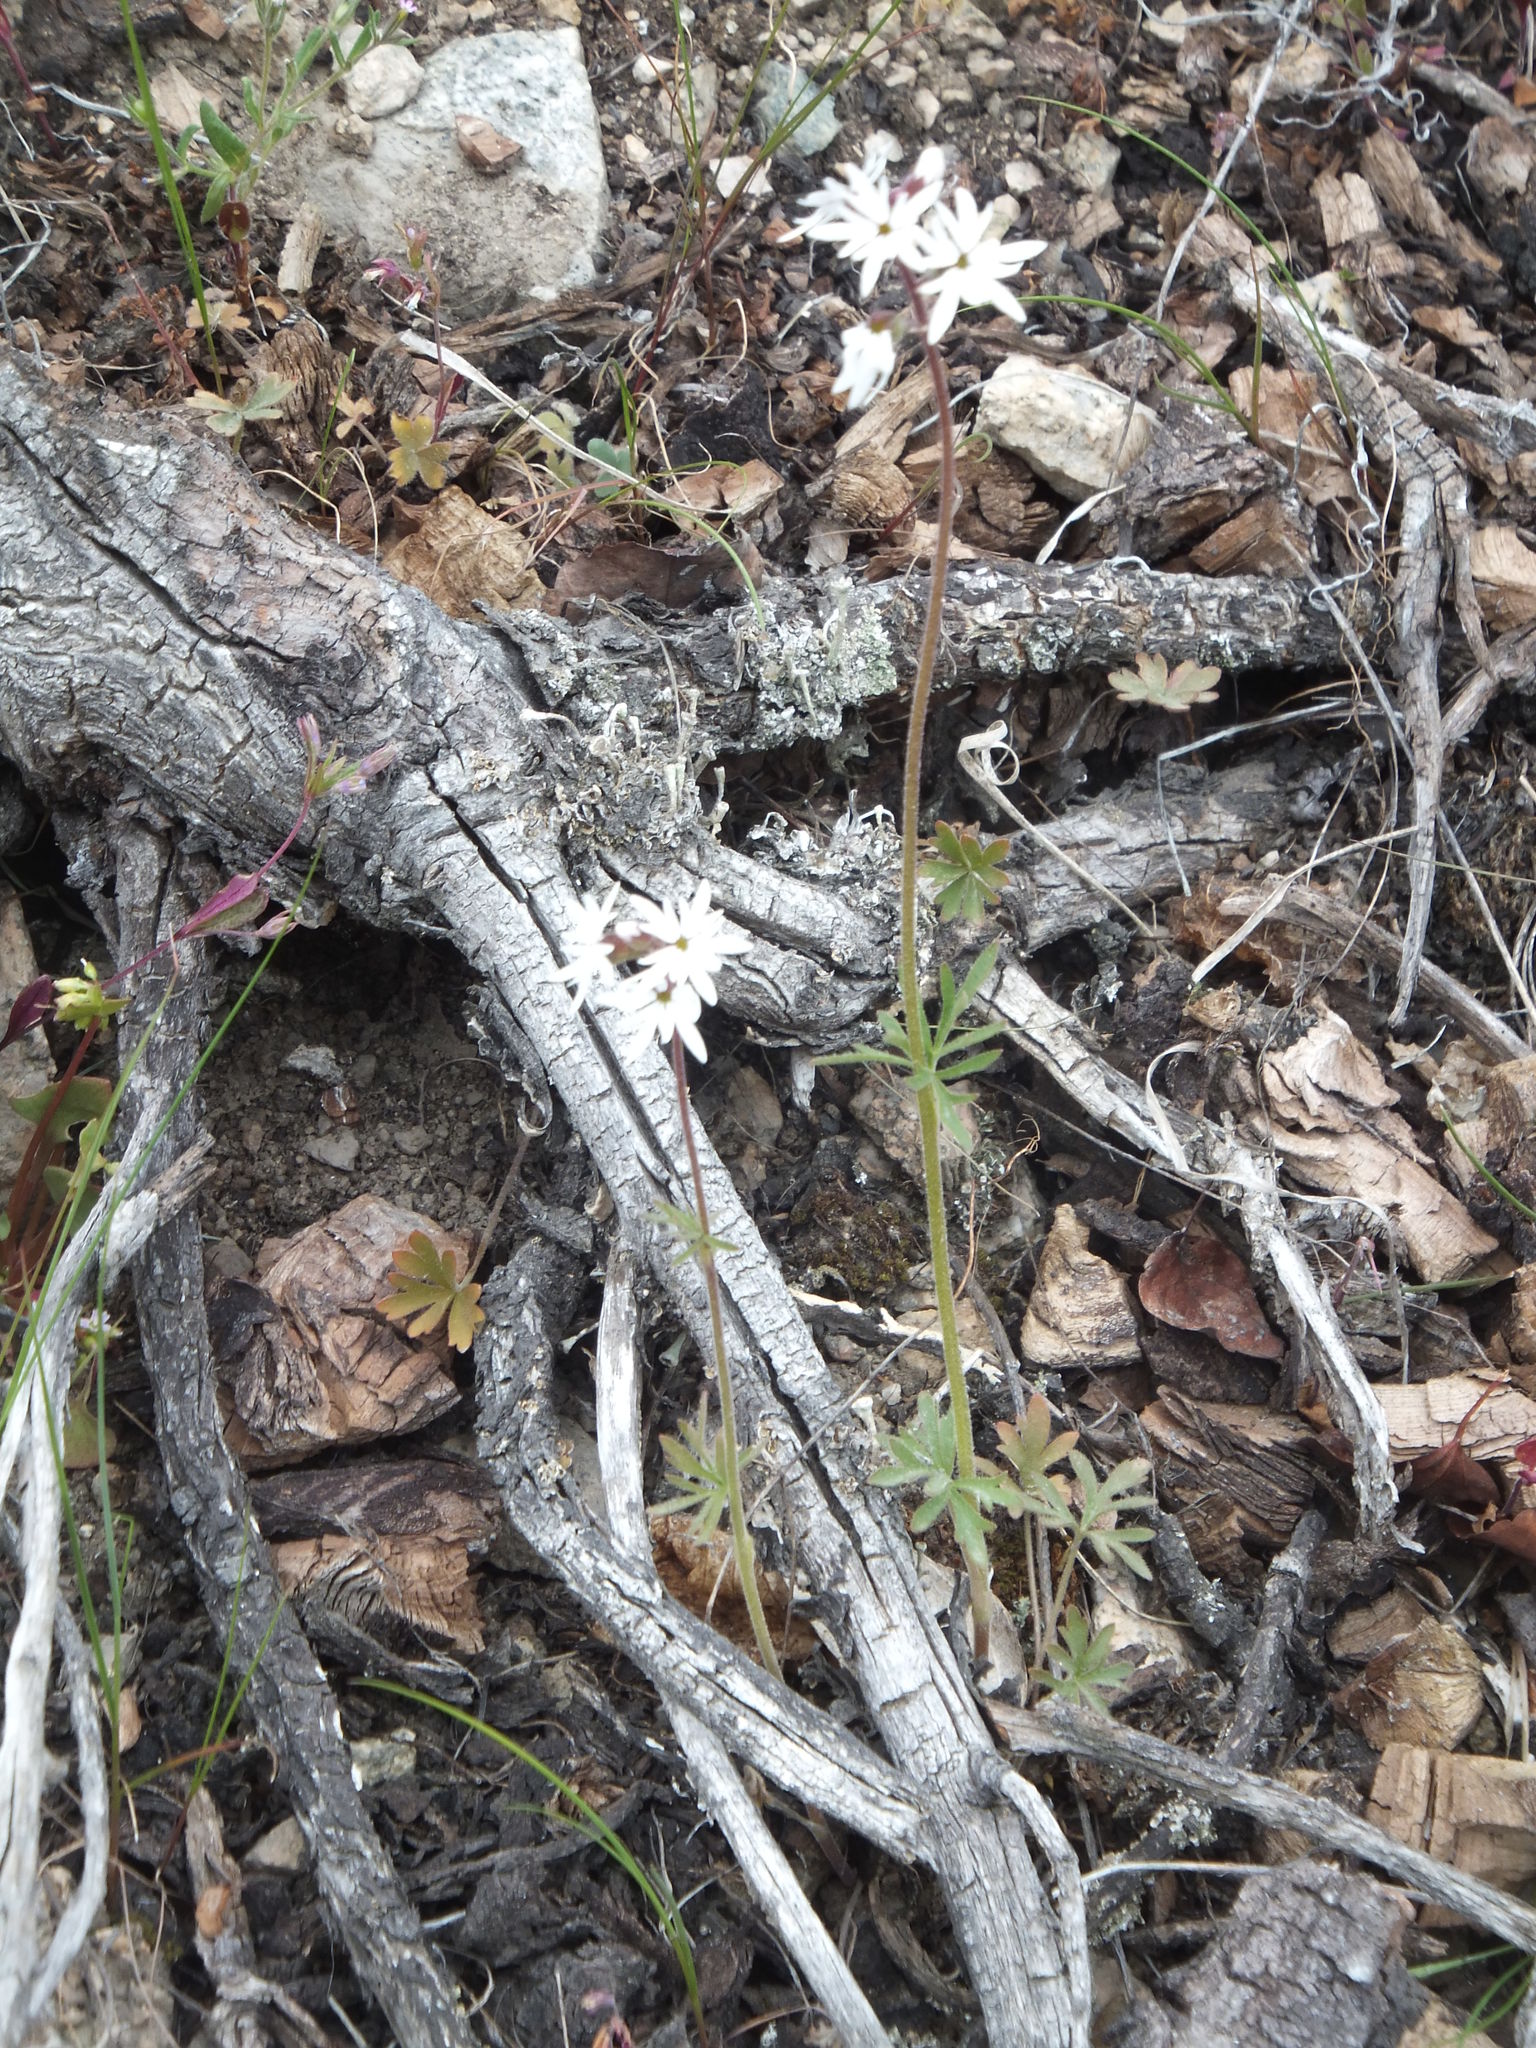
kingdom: Plantae
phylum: Tracheophyta
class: Magnoliopsida
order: Saxifragales
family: Saxifragaceae
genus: Lithophragma
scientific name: Lithophragma parviflorum
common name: Small-flowered fringe-cup
